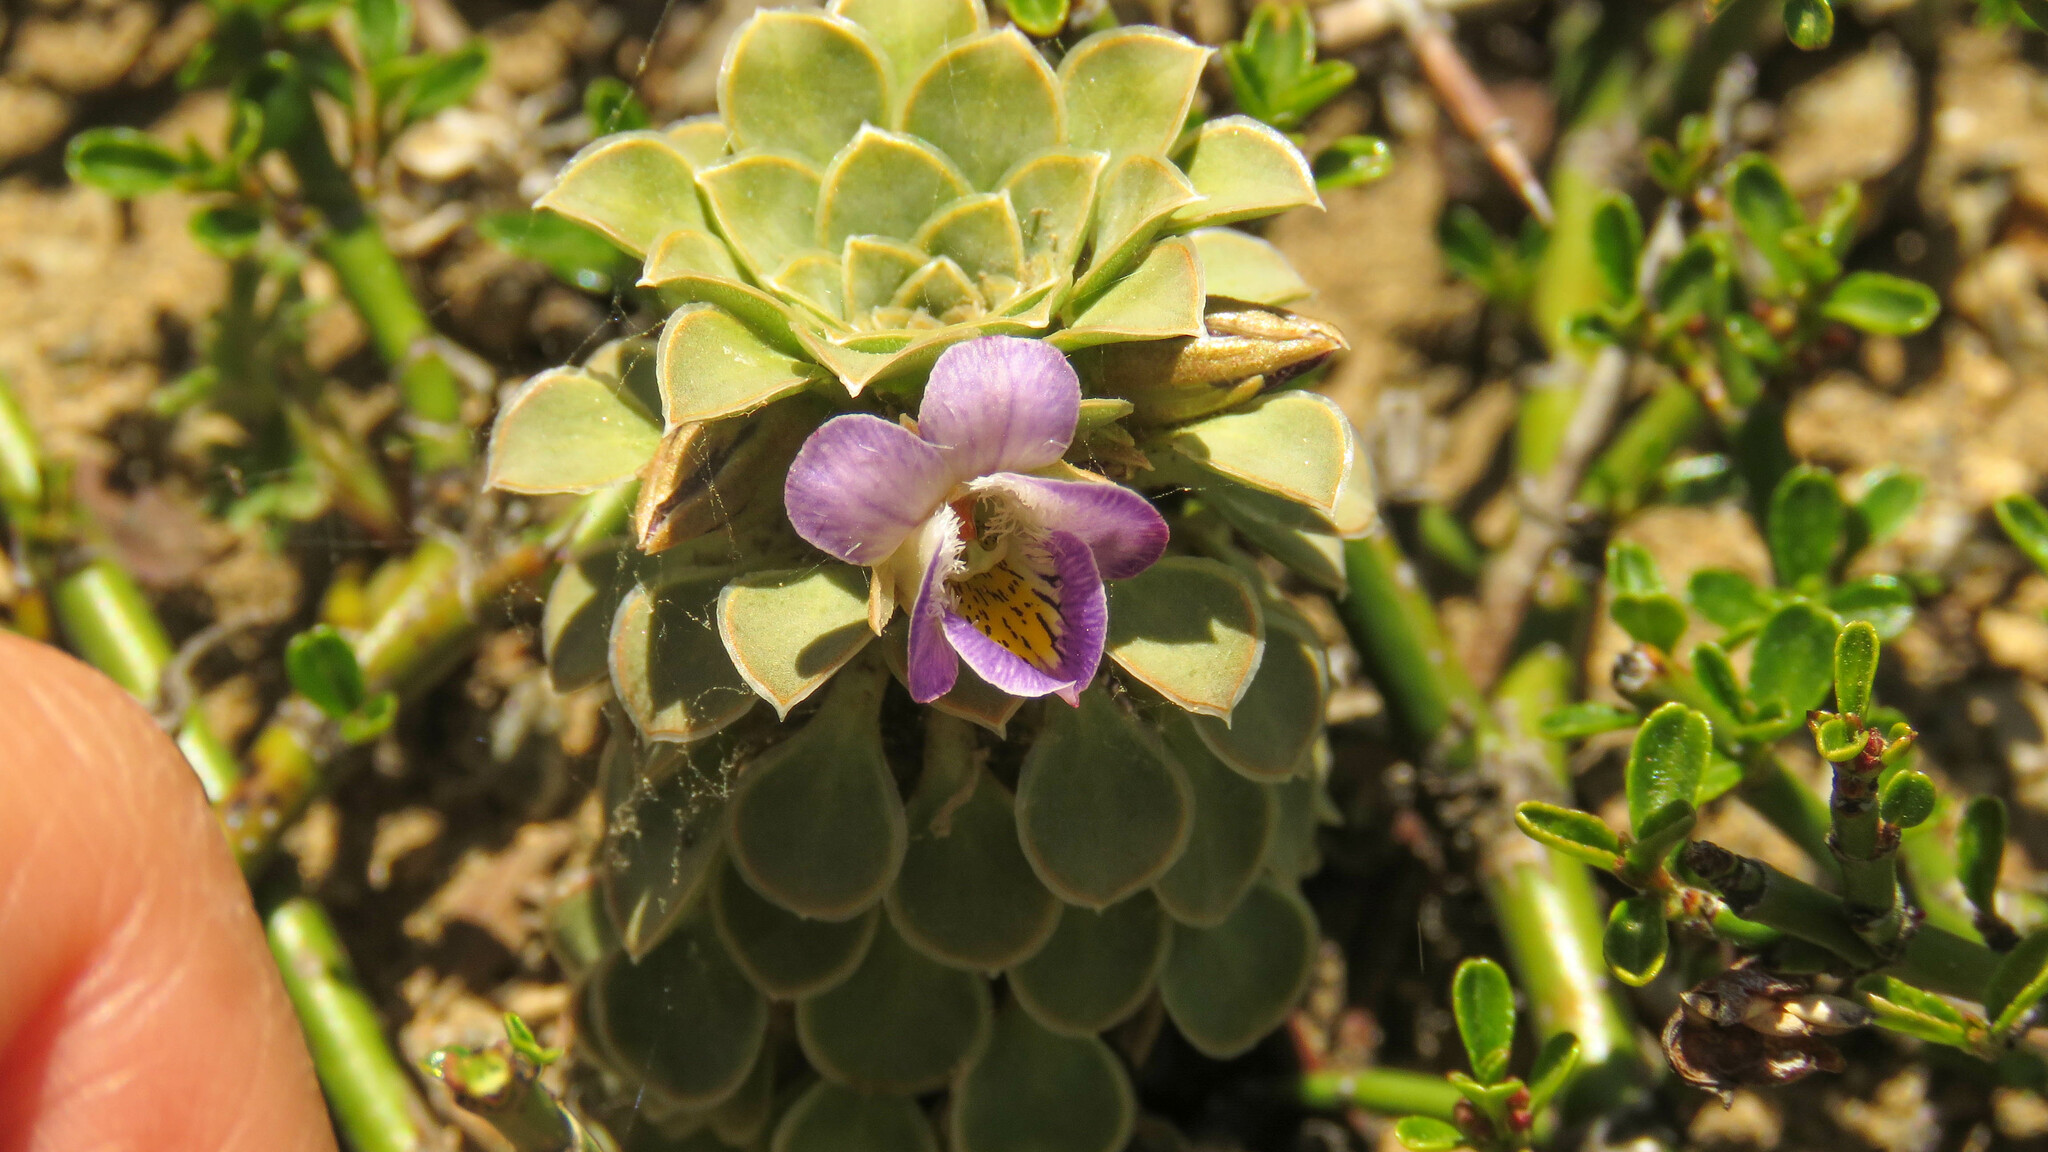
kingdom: Plantae
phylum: Tracheophyta
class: Magnoliopsida
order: Malpighiales
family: Violaceae
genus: Viola
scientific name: Viola petraea
